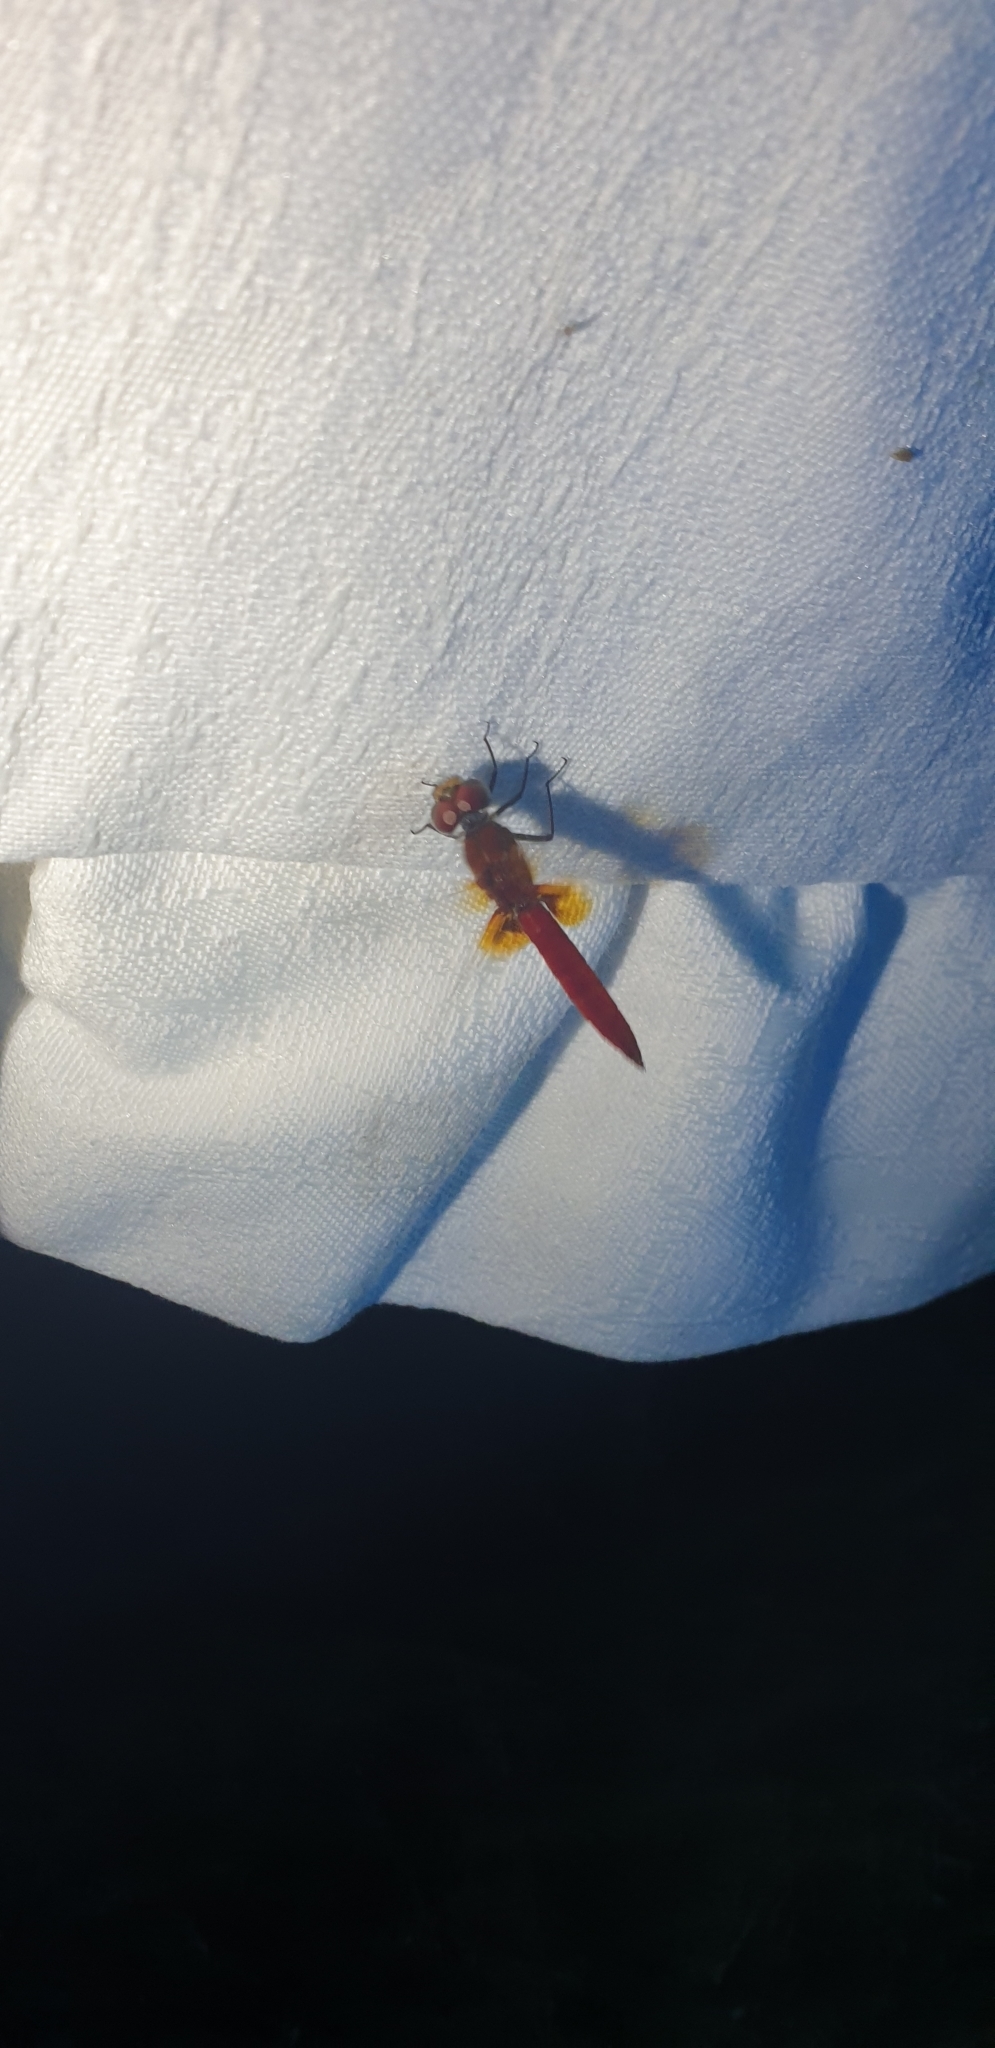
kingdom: Animalia
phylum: Arthropoda
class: Insecta
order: Odonata
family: Libellulidae
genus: Diplacodes
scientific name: Diplacodes haematodes
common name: Scarlet percher
